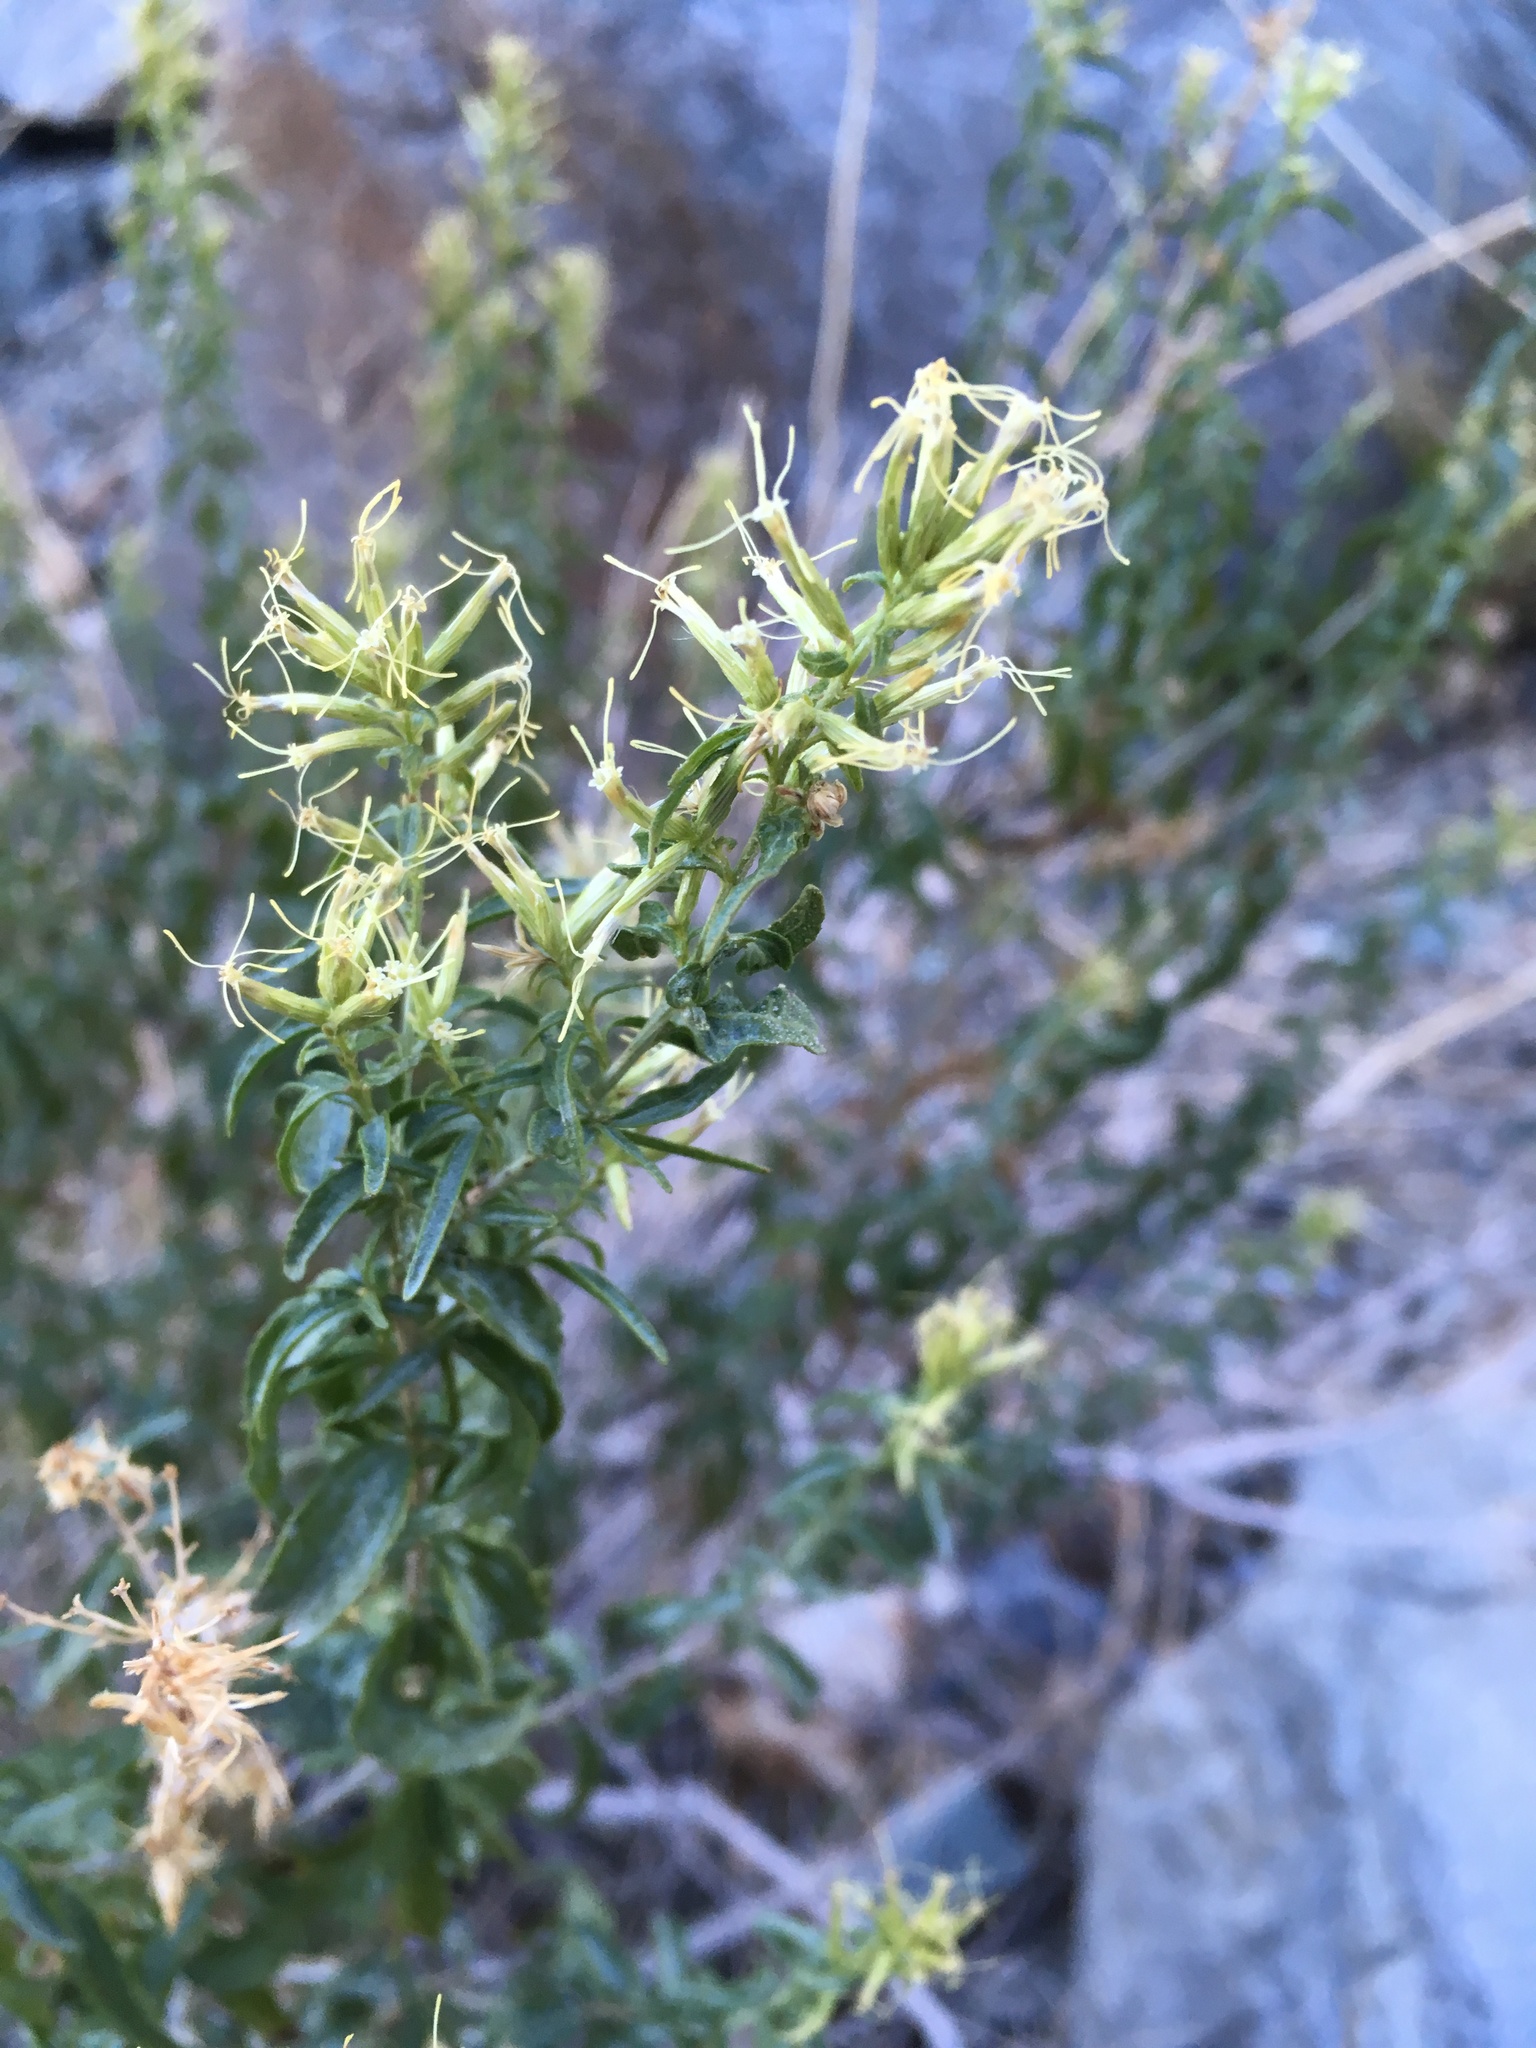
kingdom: Plantae
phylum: Tracheophyta
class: Magnoliopsida
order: Asterales
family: Asteraceae
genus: Brickellia
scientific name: Brickellia longifolia
